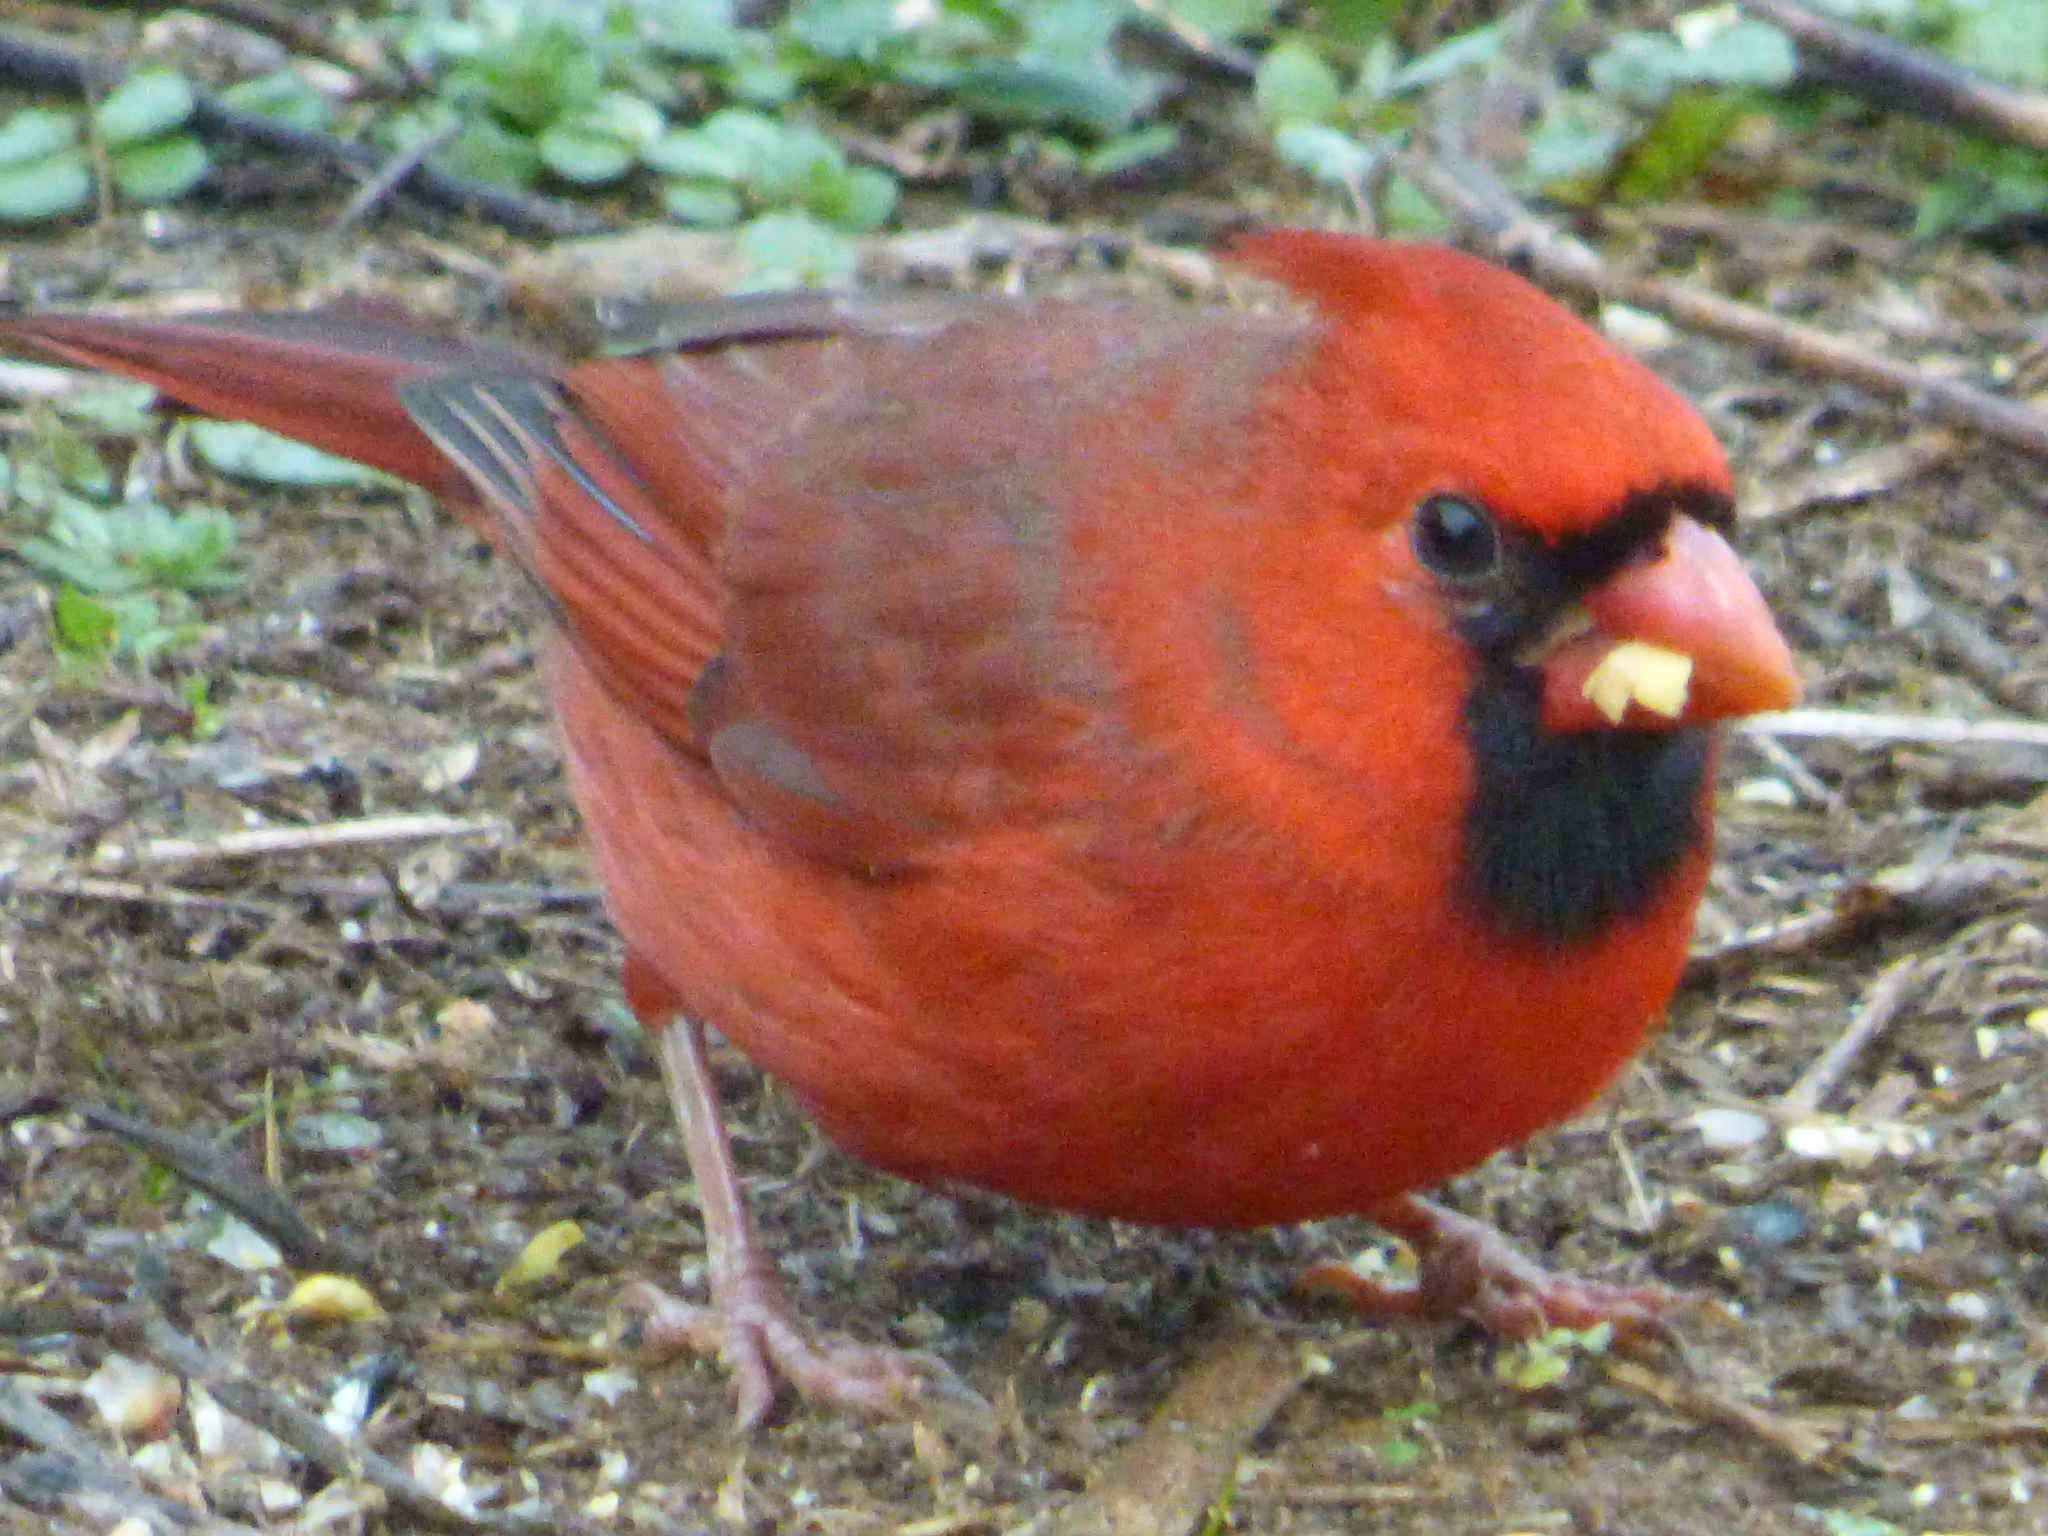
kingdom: Animalia
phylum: Chordata
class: Aves
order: Passeriformes
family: Cardinalidae
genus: Cardinalis
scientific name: Cardinalis cardinalis
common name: Northern cardinal
